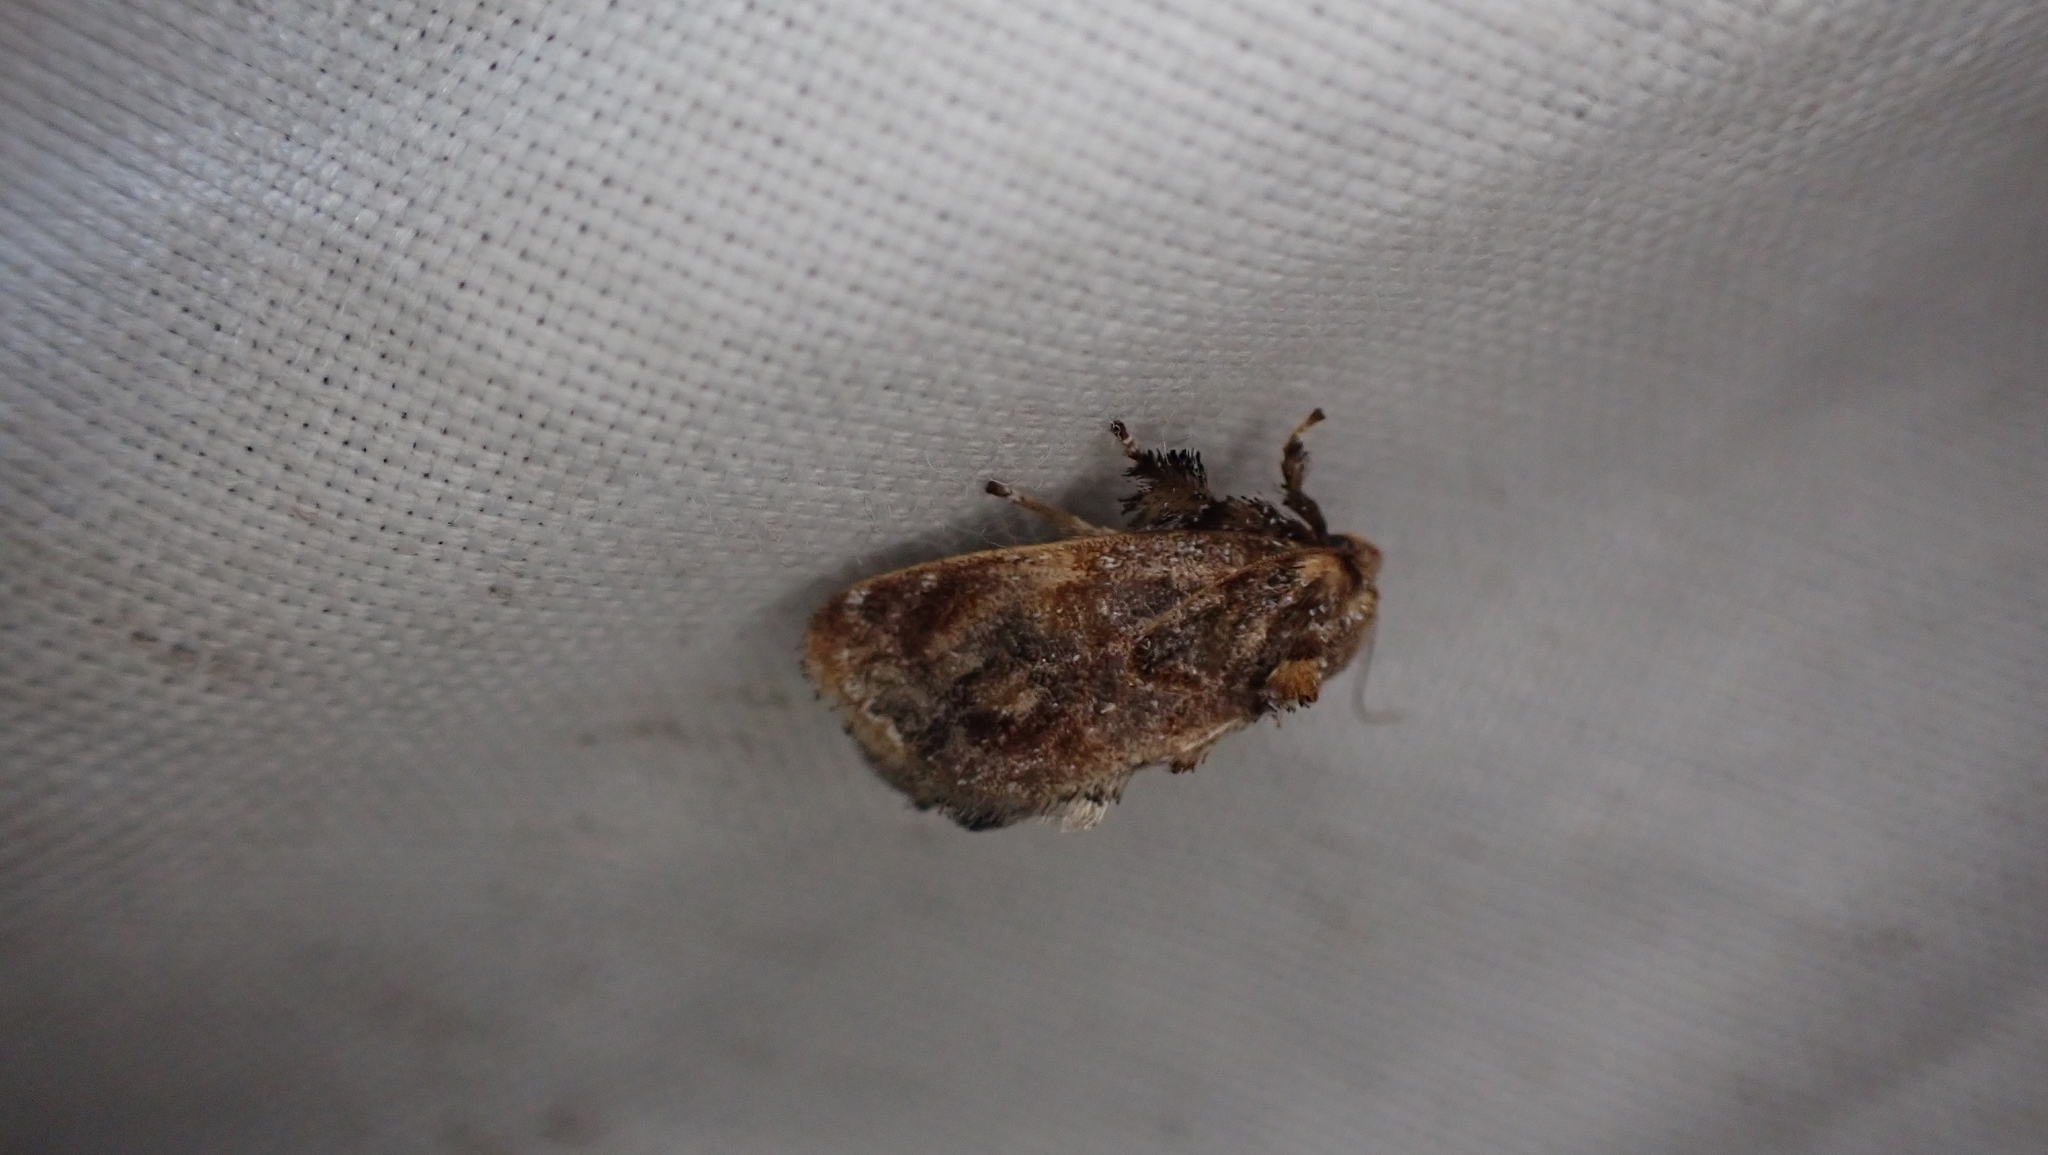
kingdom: Animalia
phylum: Arthropoda
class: Insecta
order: Lepidoptera
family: Limacodidae
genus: Isochaetes
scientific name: Isochaetes beutenmuelleri
